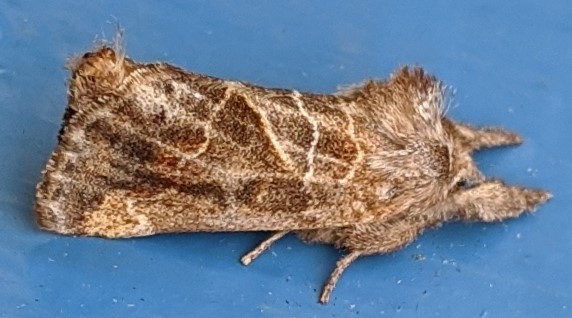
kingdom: Animalia
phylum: Arthropoda
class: Insecta
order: Lepidoptera
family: Notodontidae
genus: Clostera
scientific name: Clostera strigosa
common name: Striped chocolate-tip moth
